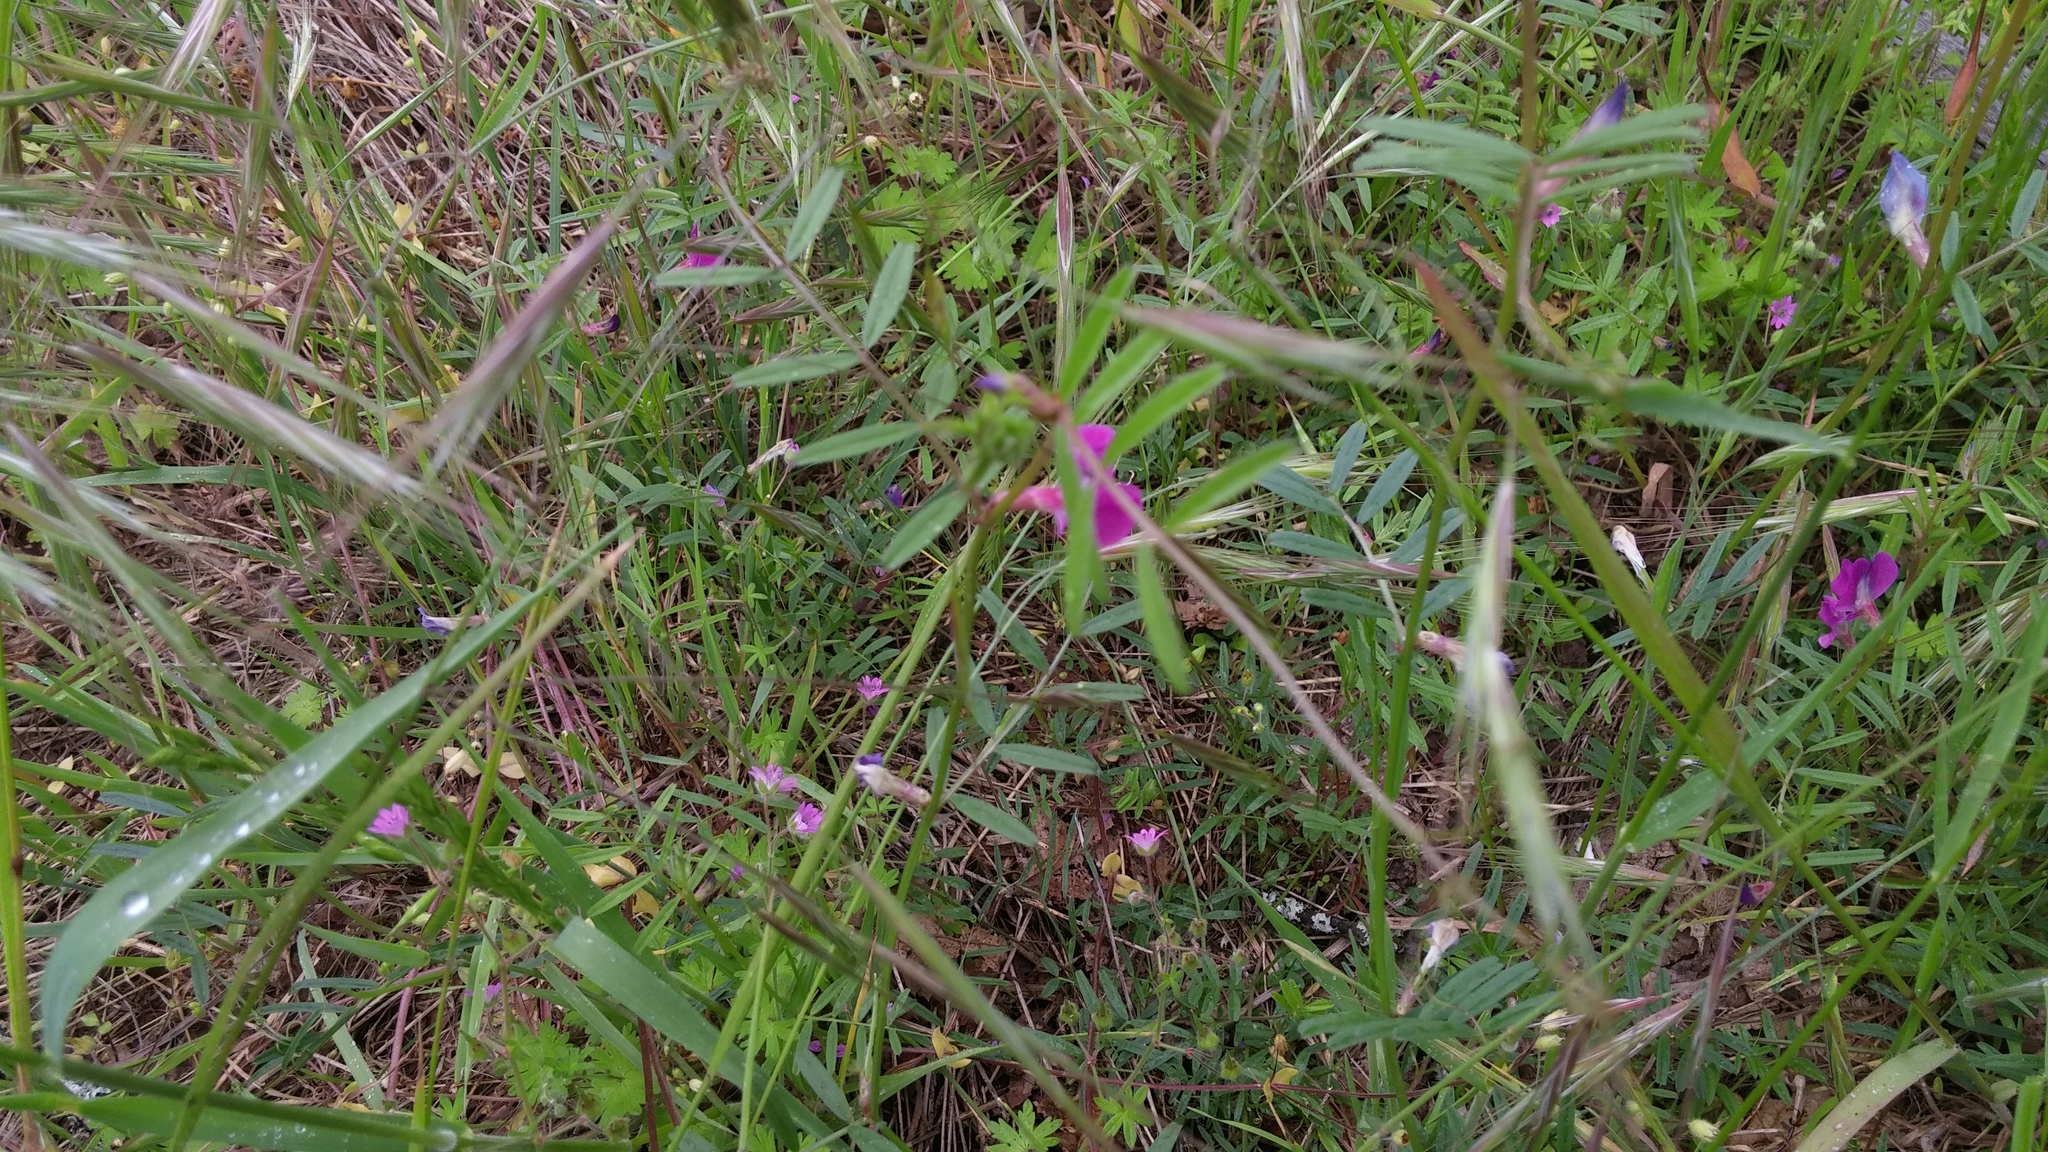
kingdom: Plantae
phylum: Tracheophyta
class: Magnoliopsida
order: Fabales
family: Fabaceae
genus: Vicia
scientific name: Vicia sativa
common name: Garden vetch
